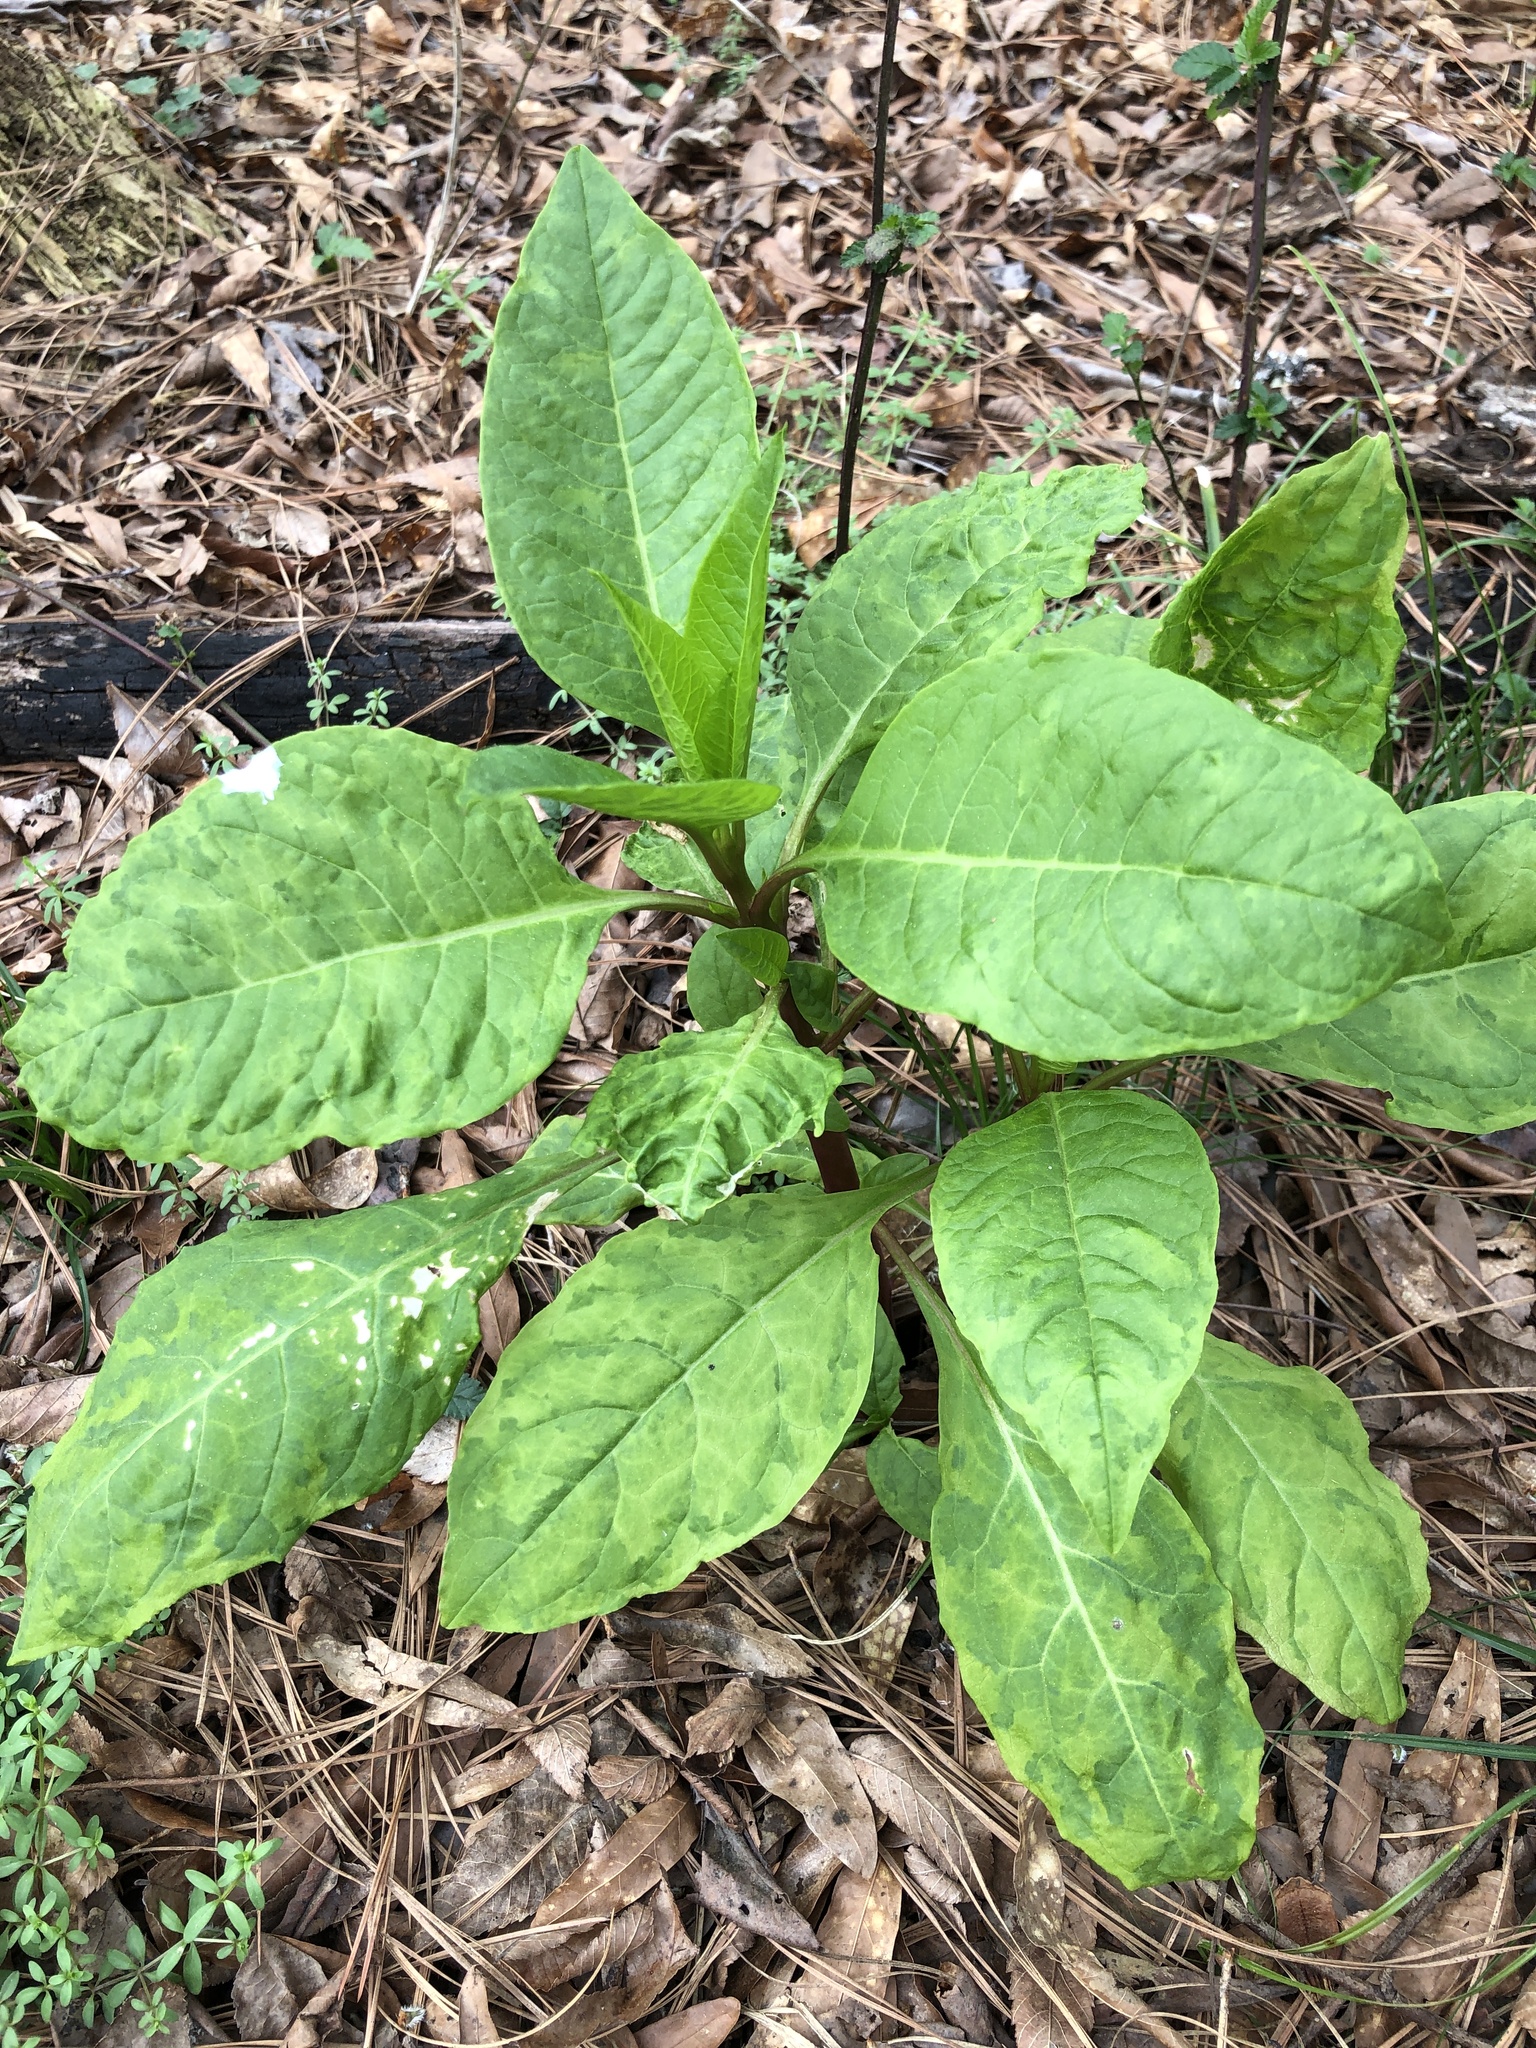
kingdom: Plantae
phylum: Tracheophyta
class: Magnoliopsida
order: Caryophyllales
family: Phytolaccaceae
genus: Phytolacca
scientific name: Phytolacca americana
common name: American pokeweed
